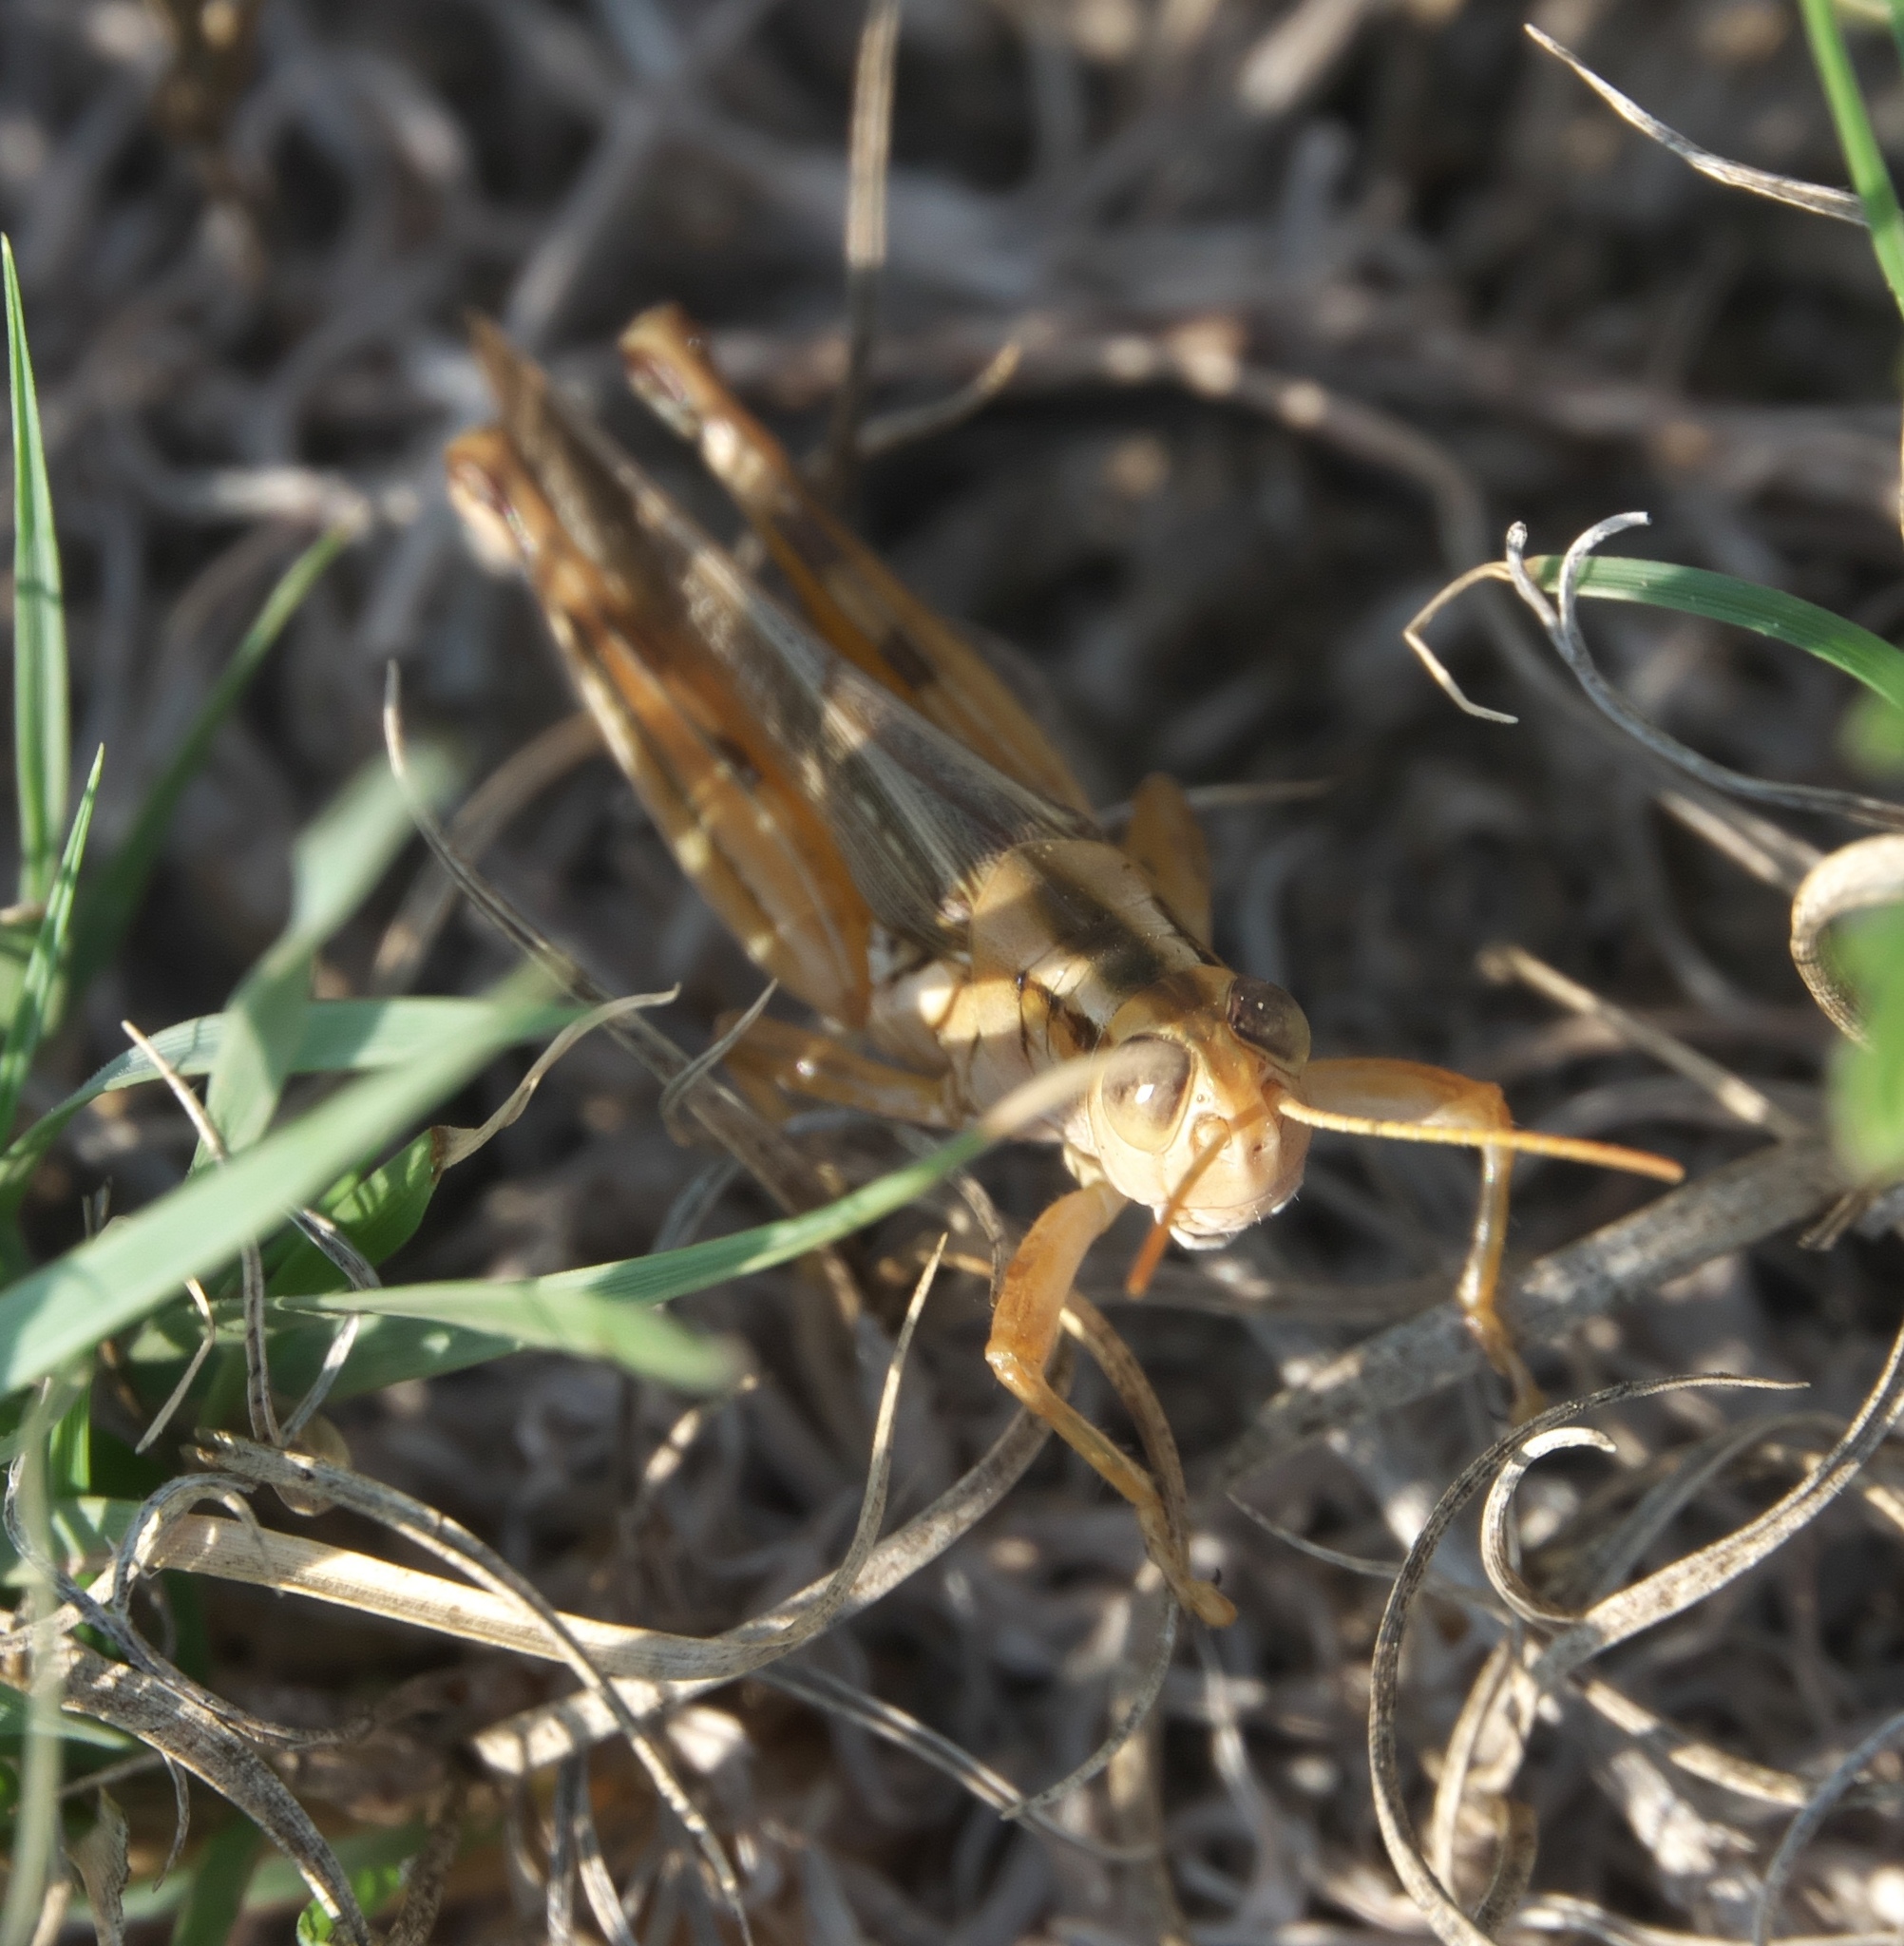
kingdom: Animalia
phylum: Arthropoda
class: Insecta
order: Orthoptera
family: Acrididae
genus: Melanoplus
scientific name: Melanoplus packardii
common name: Packard's grasshopper
